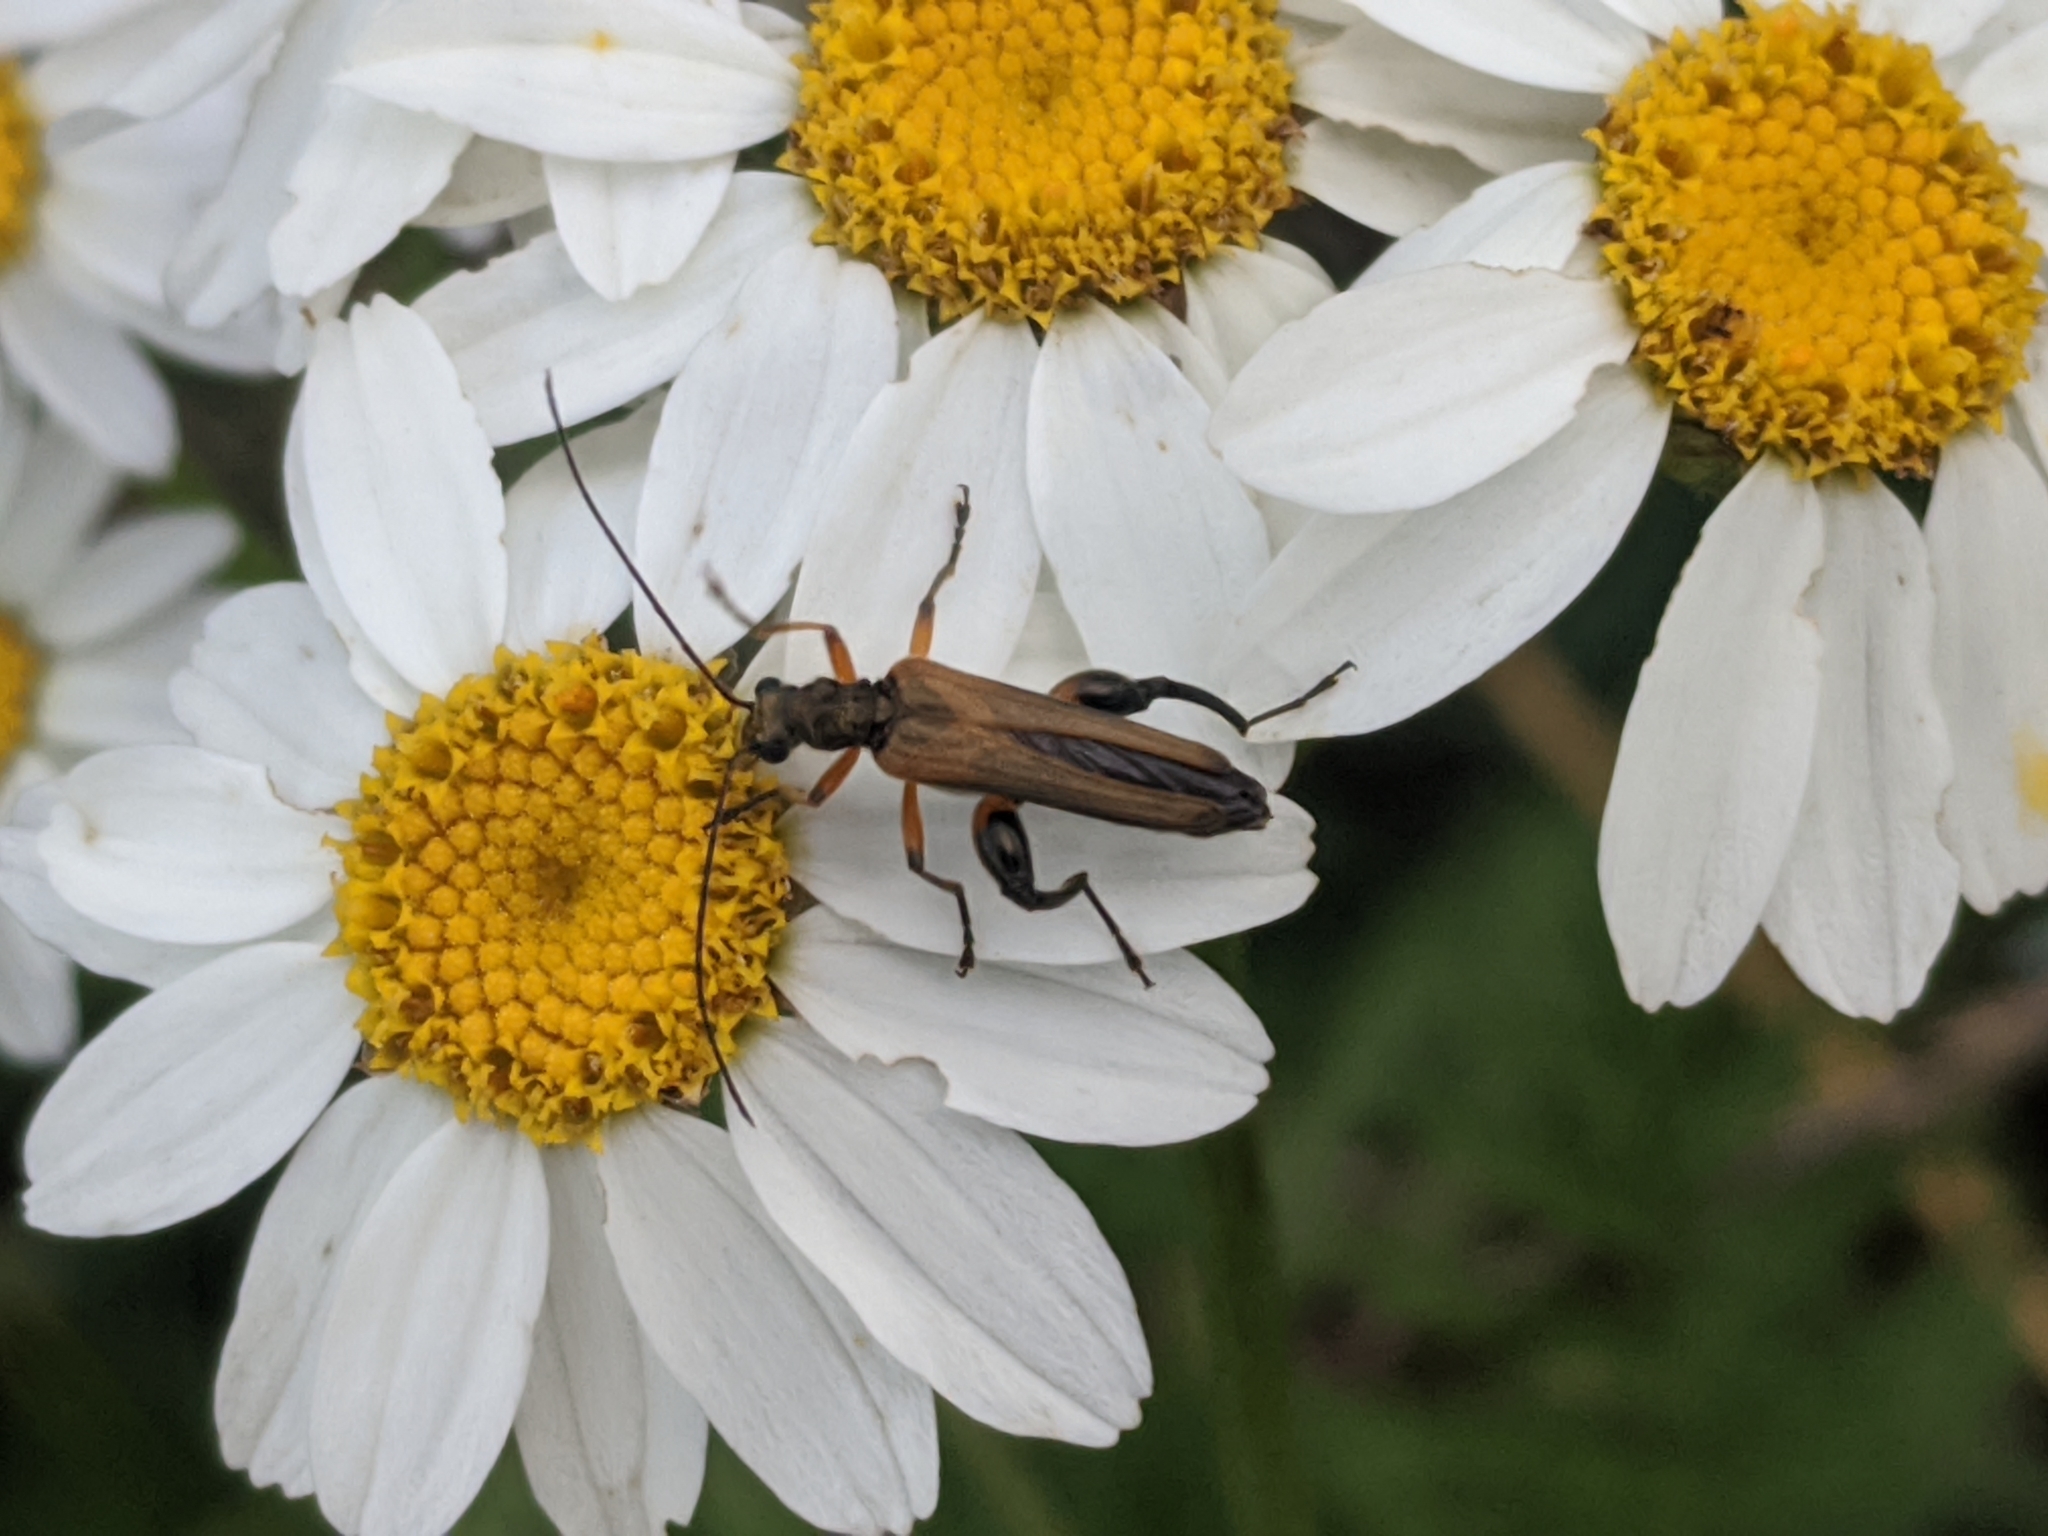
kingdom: Animalia
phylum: Arthropoda
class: Insecta
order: Coleoptera
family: Oedemeridae
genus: Oedemera
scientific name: Oedemera podagrariae
